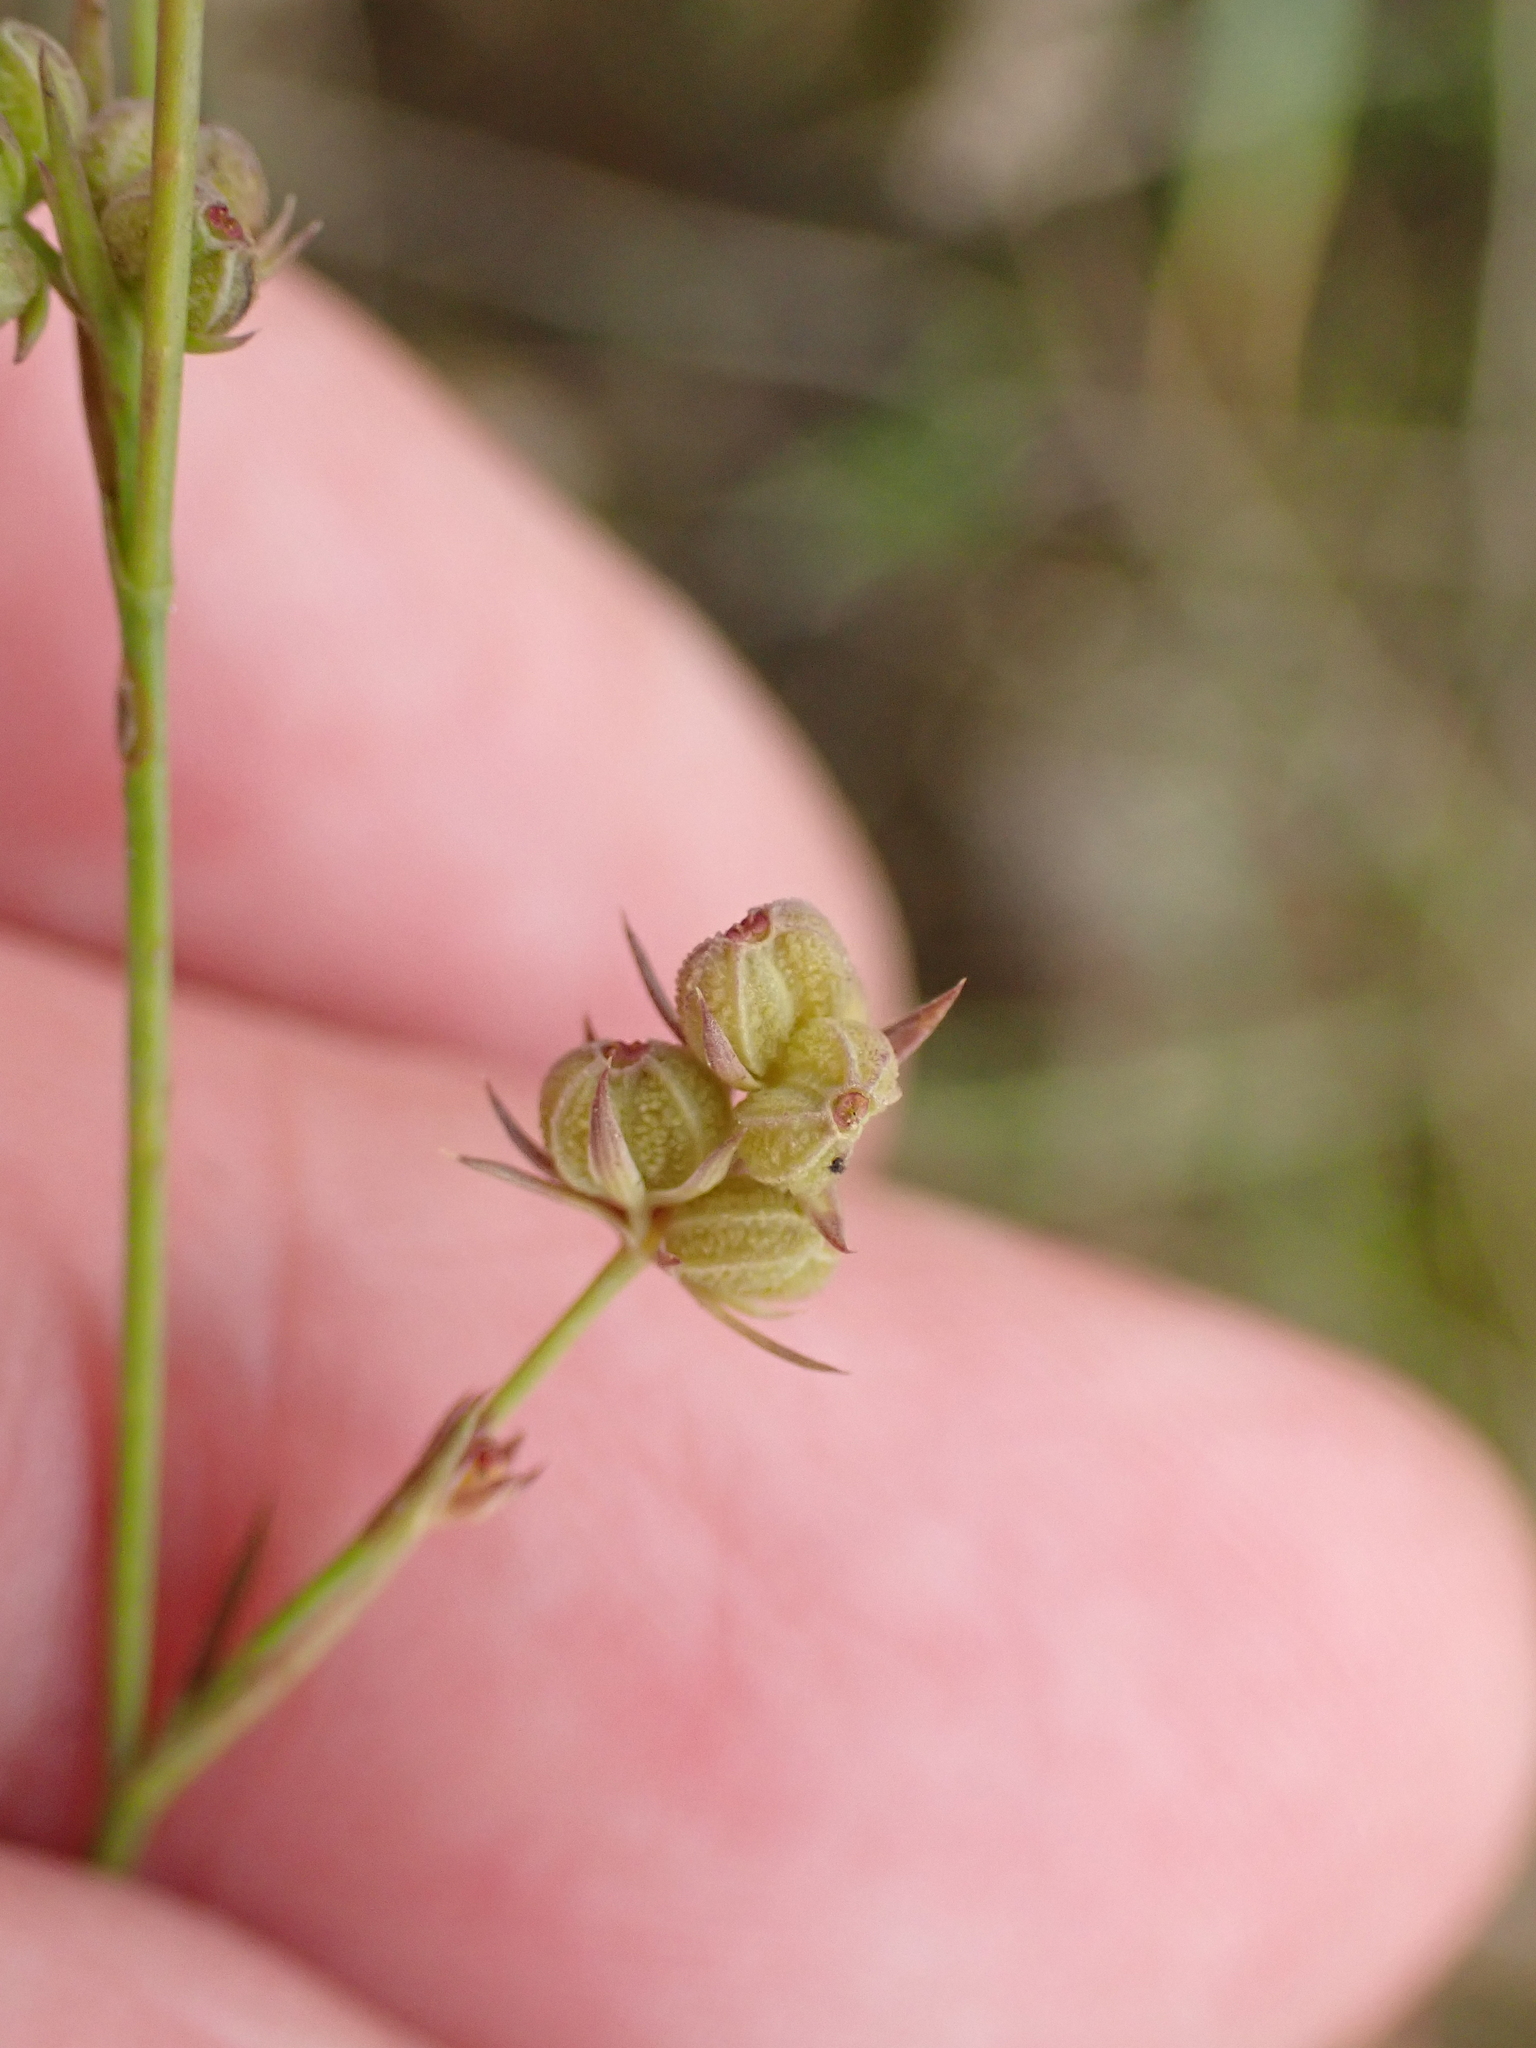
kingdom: Plantae
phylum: Tracheophyta
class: Magnoliopsida
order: Apiales
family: Apiaceae
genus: Bupleurum
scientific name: Bupleurum tenuissimum
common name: Slender hare's-ear
